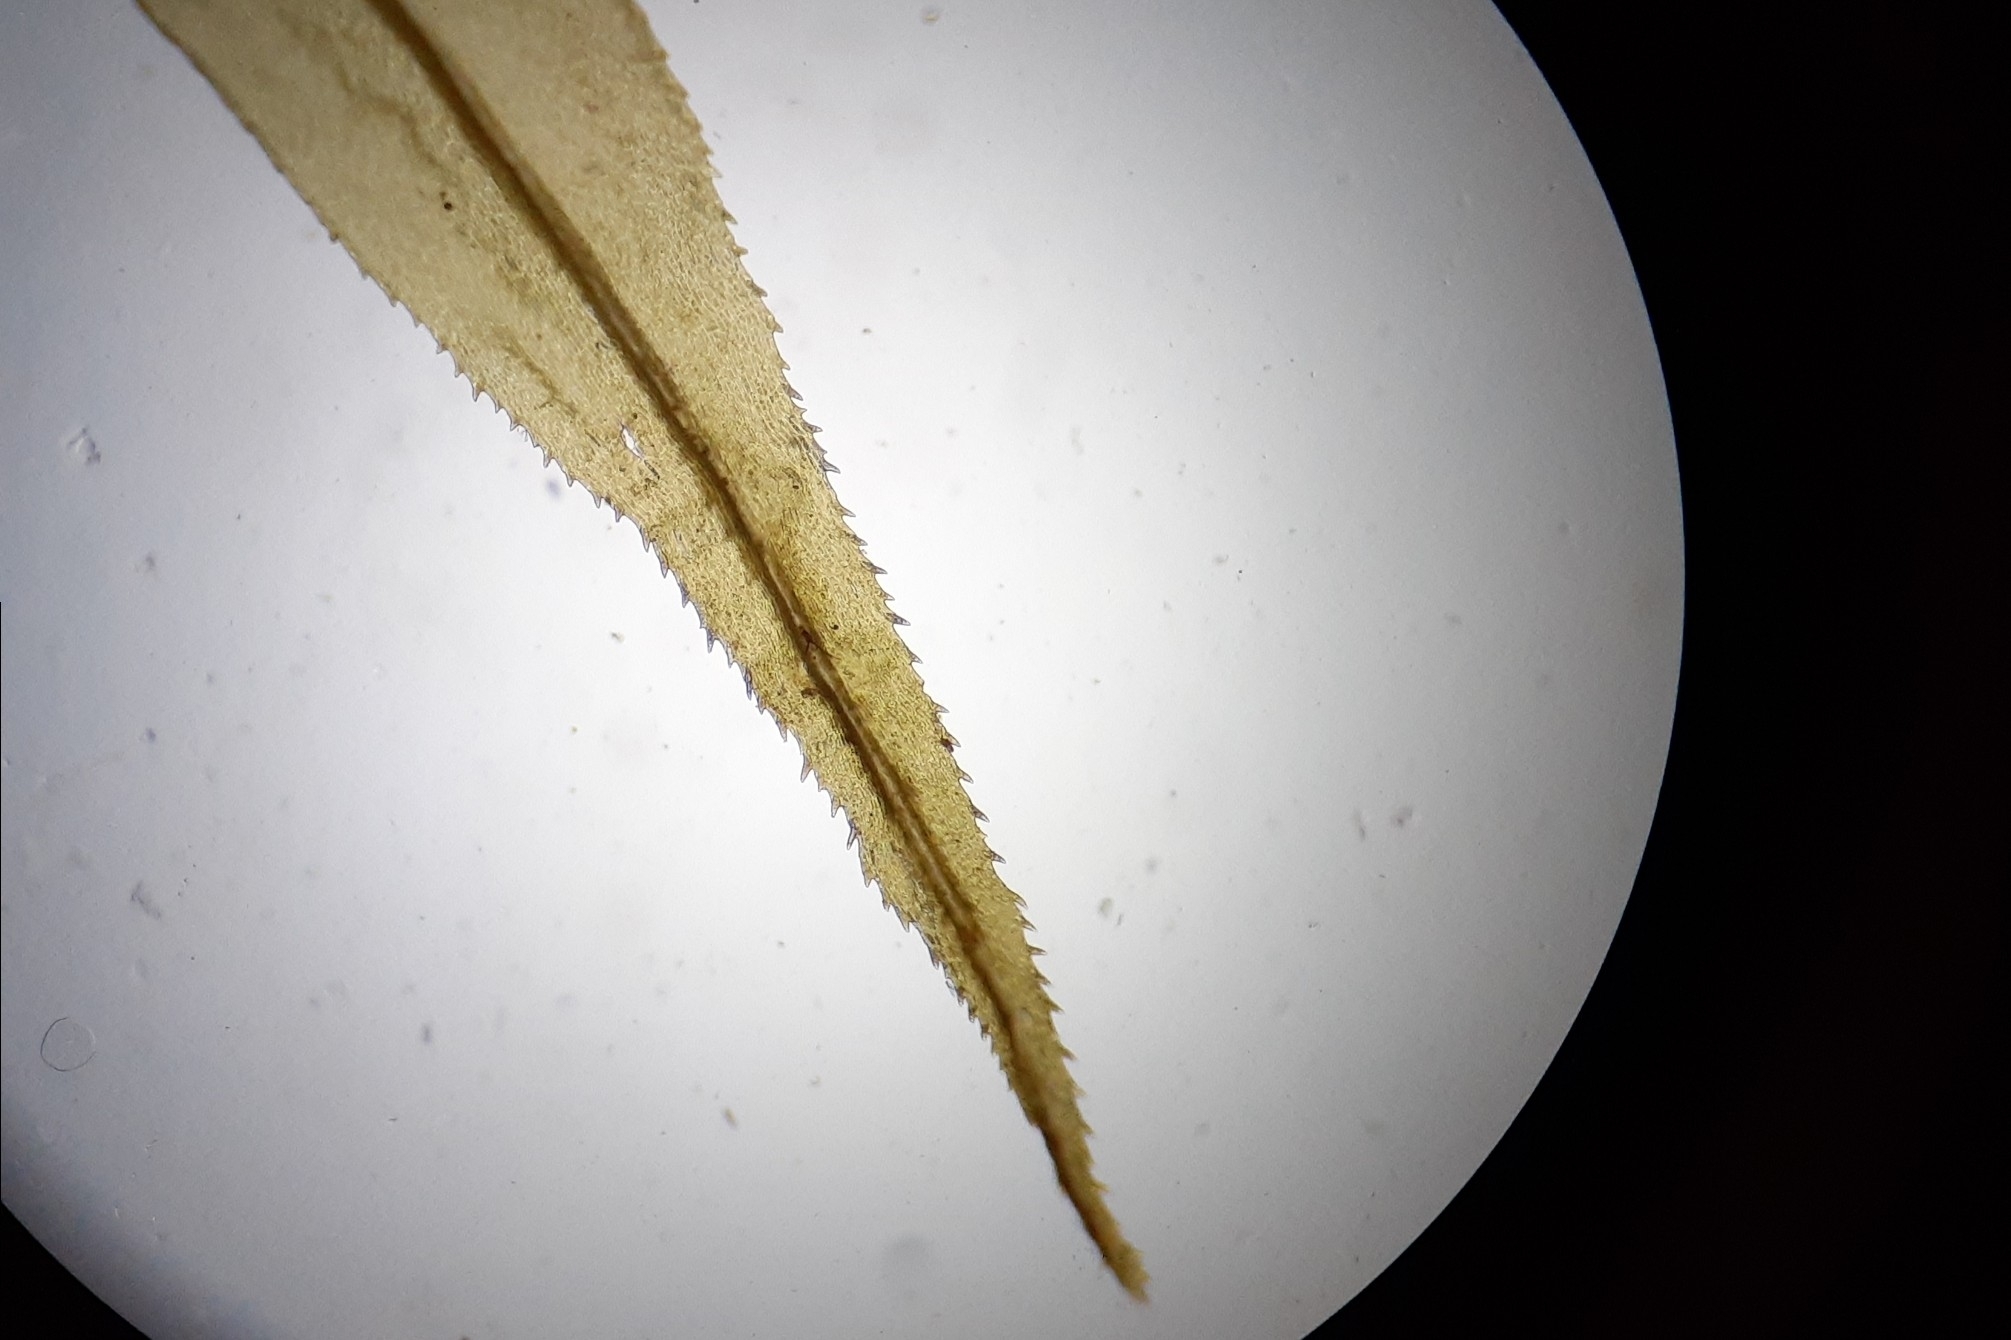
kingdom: Plantae
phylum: Bryophyta
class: Bryopsida
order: Dicranales
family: Dicranaceae
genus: Dicranum
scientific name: Dicranum polysetum
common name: Rugose fork-moss
